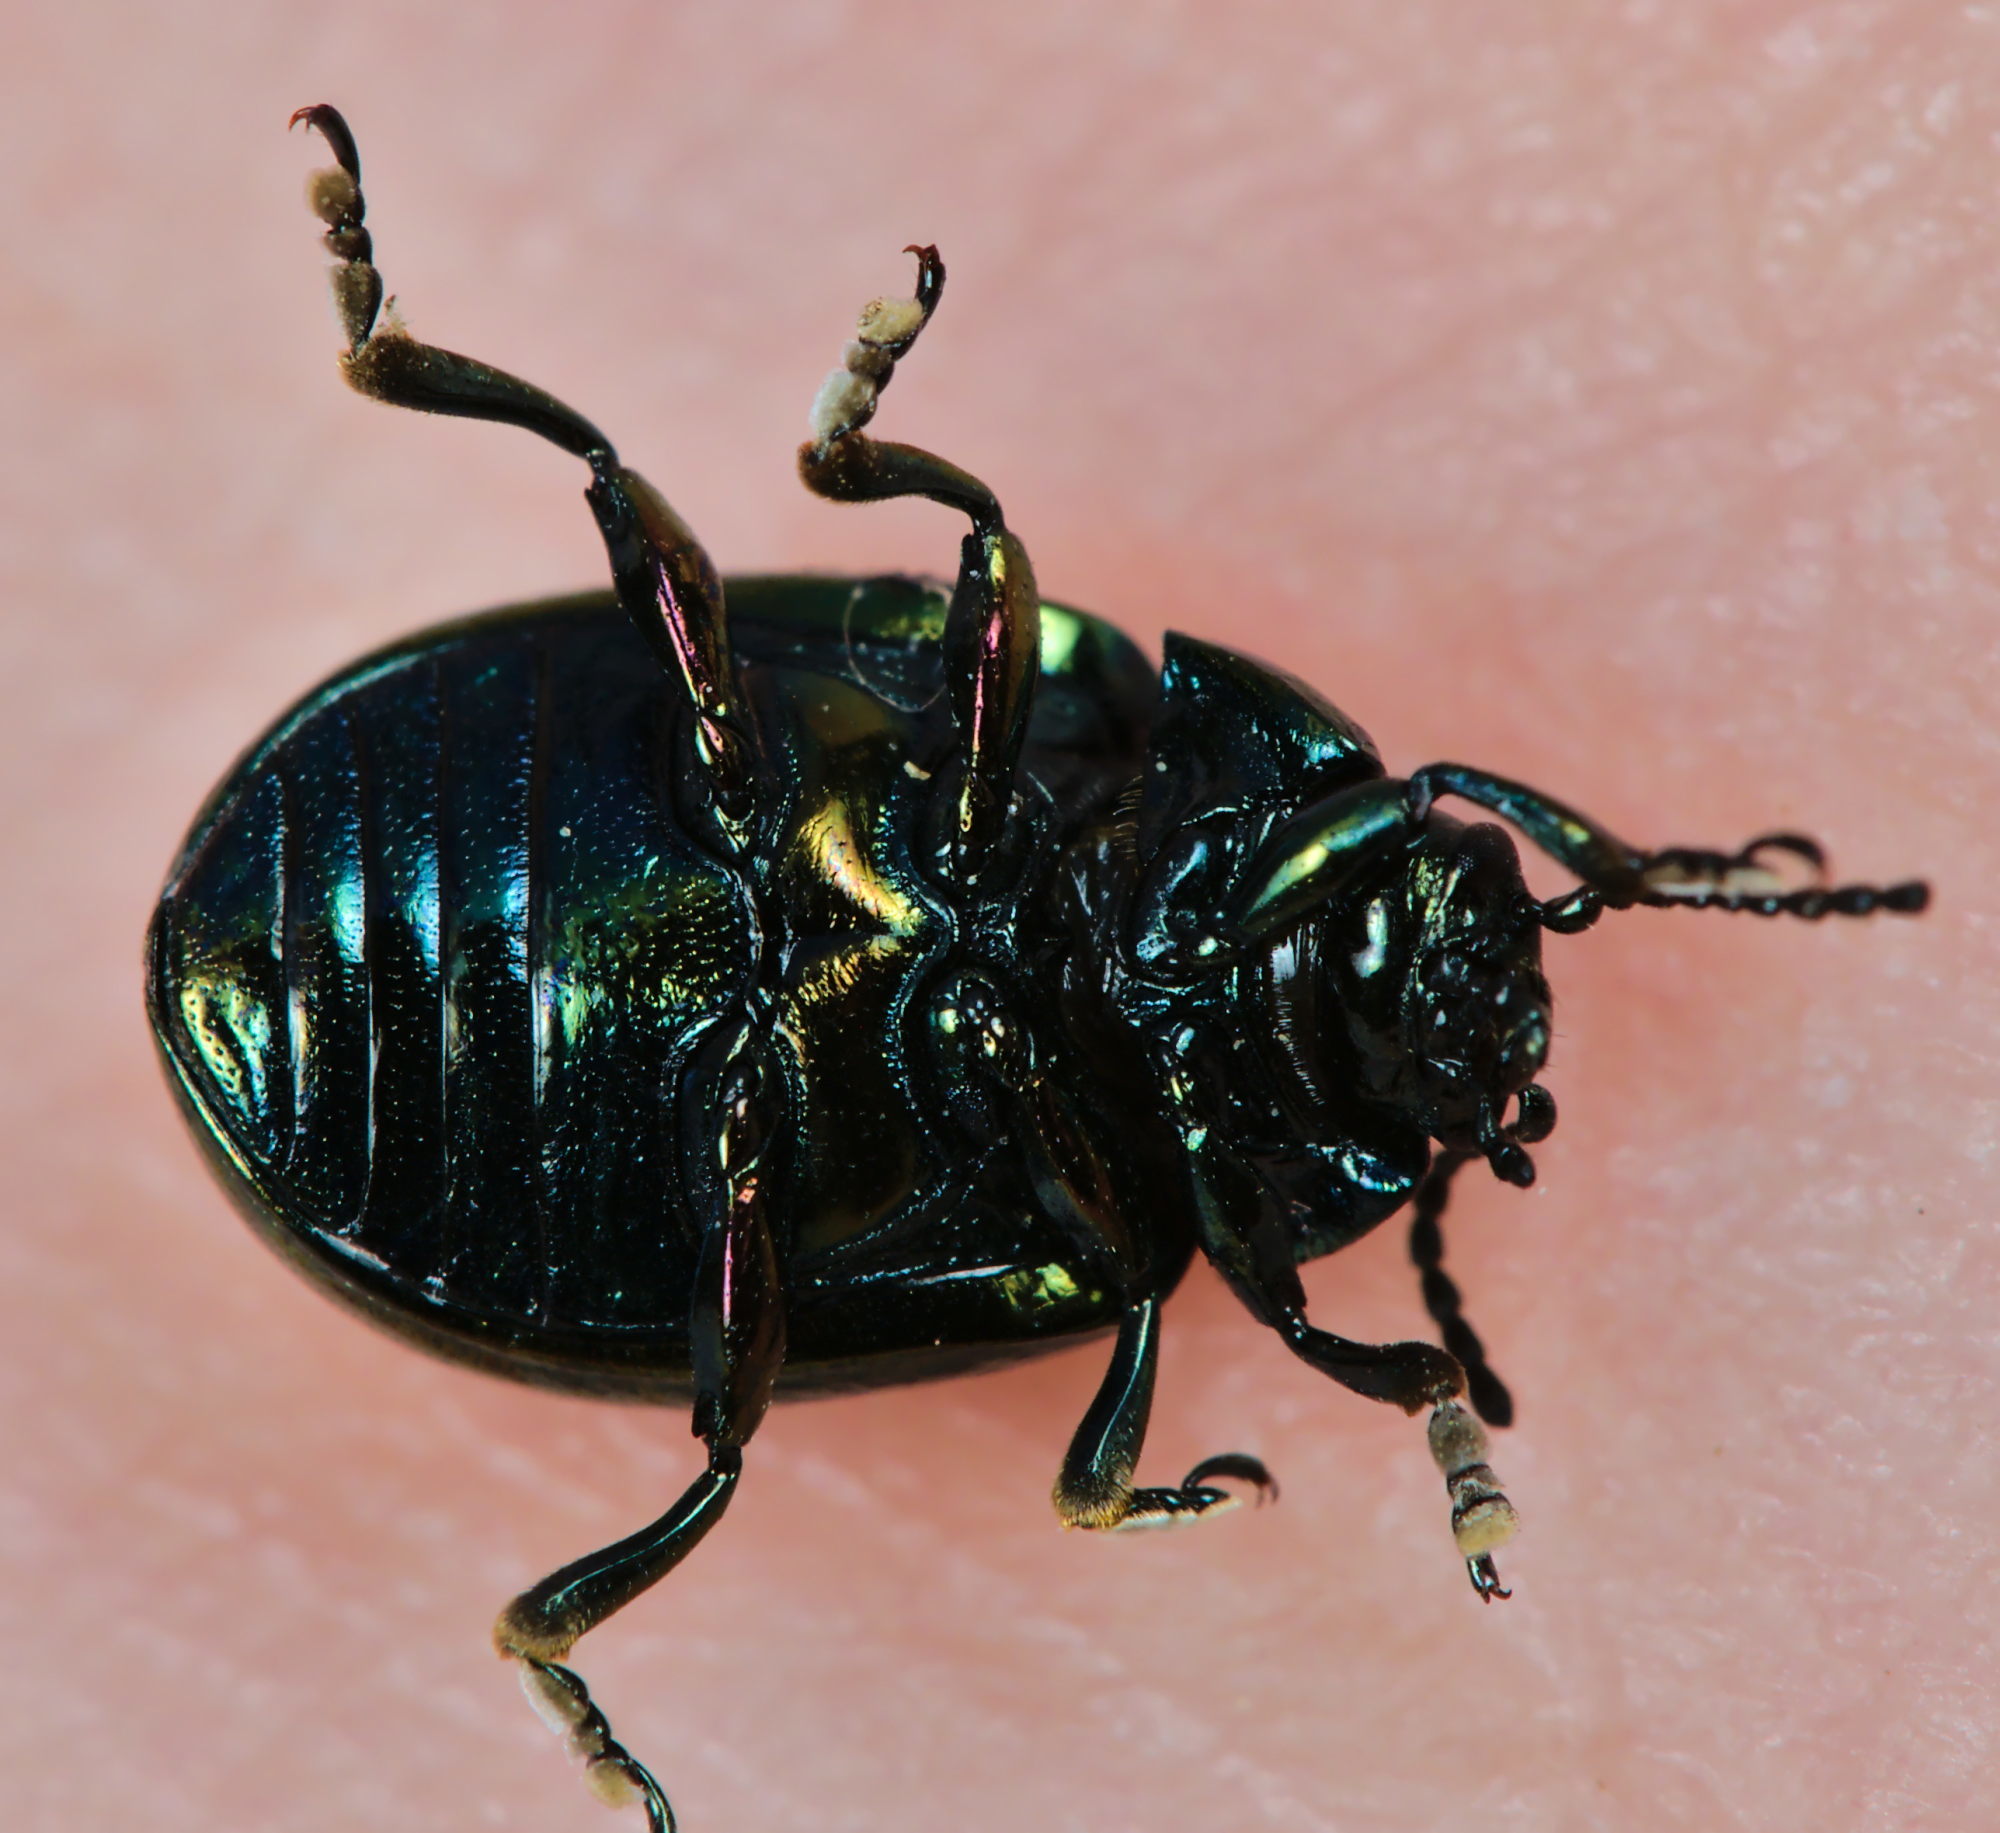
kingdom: Animalia
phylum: Arthropoda
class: Insecta
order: Coleoptera
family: Chrysomelidae
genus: Chrysolina
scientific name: Chrysolina varians
